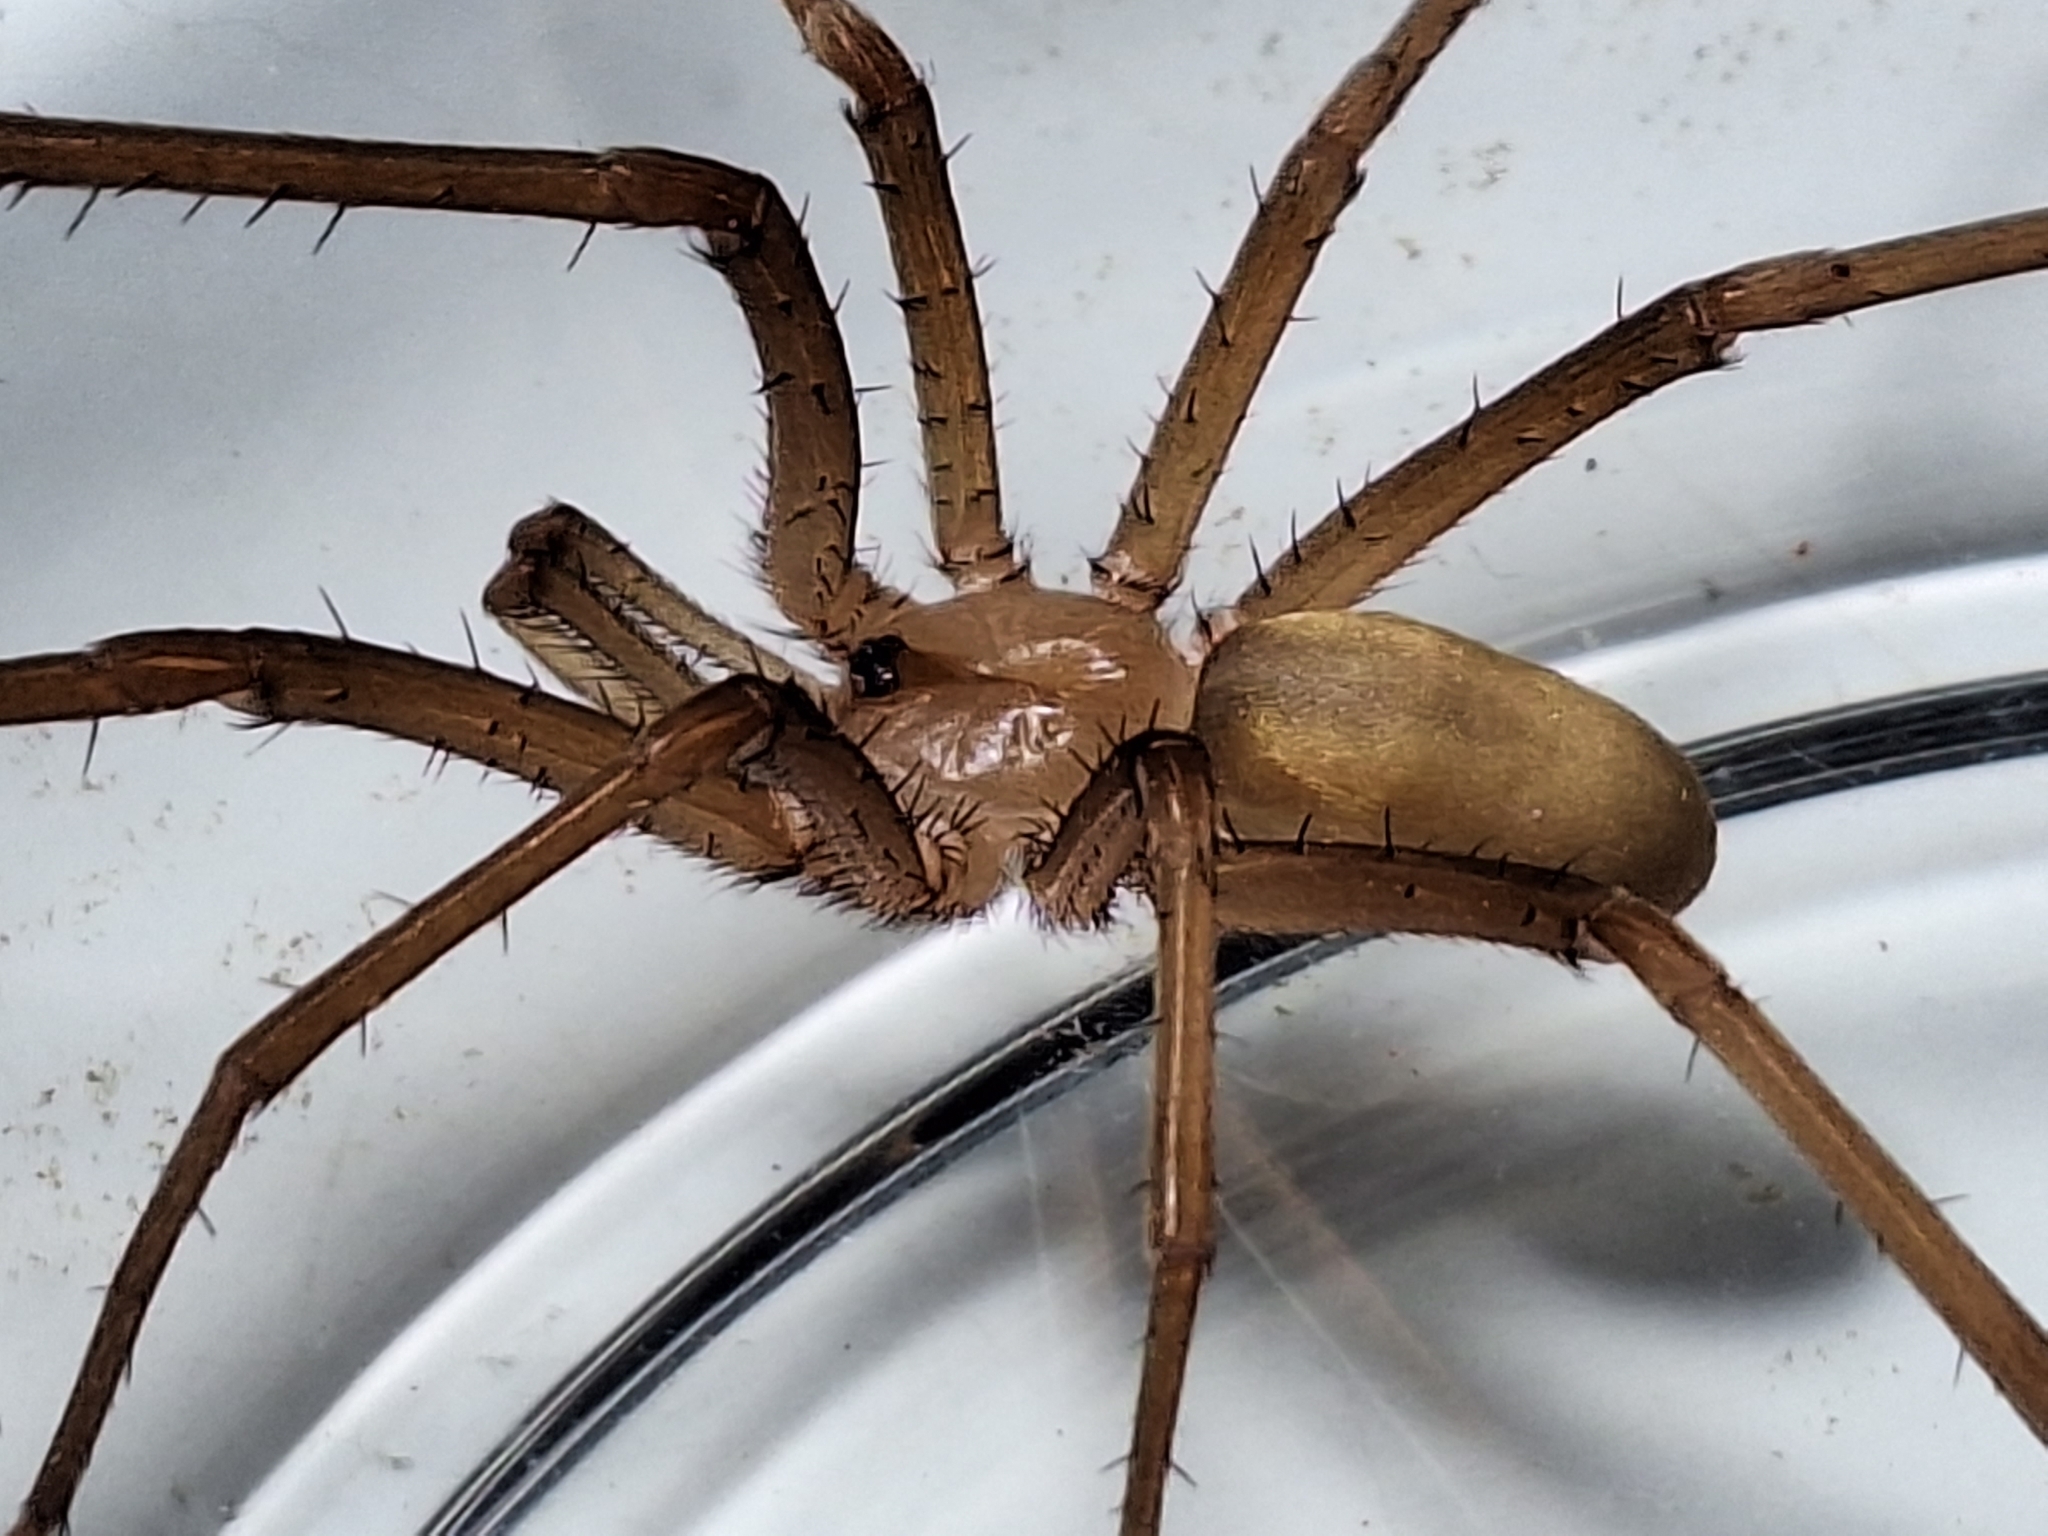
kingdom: Animalia
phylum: Arthropoda
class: Arachnida
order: Araneae
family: Filistatidae
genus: Kukulcania
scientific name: Kukulcania hibernalis
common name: Crevice weaver
